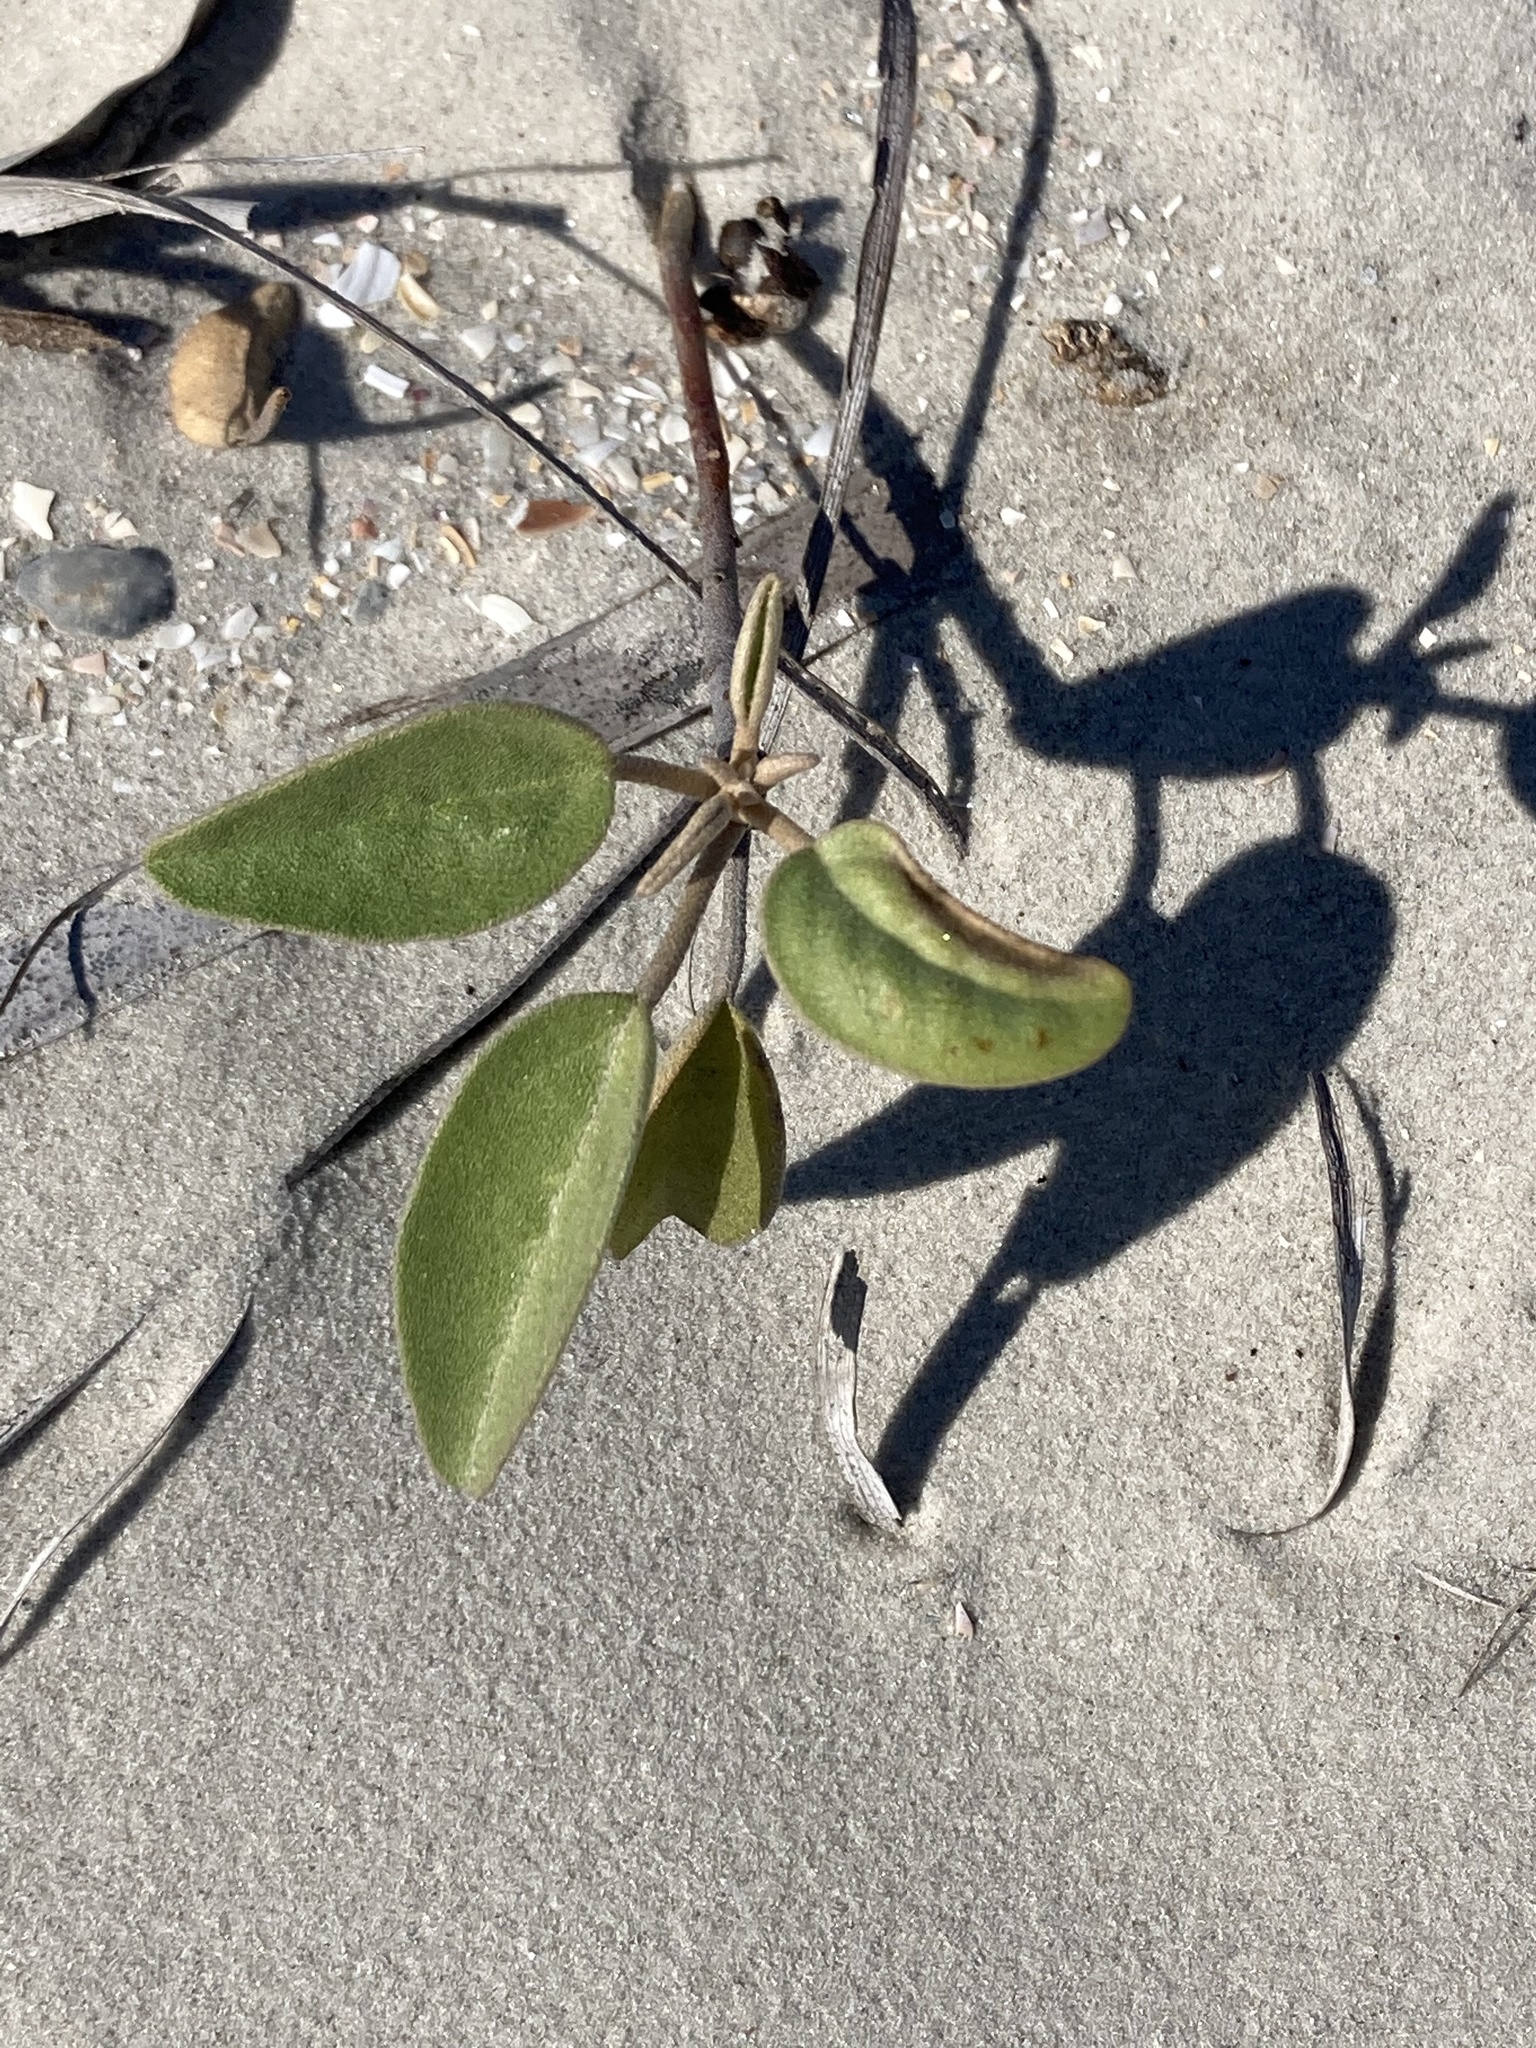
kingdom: Plantae
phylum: Tracheophyta
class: Magnoliopsida
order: Malpighiales
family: Euphorbiaceae
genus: Croton
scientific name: Croton punctatus
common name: Beach-tea
